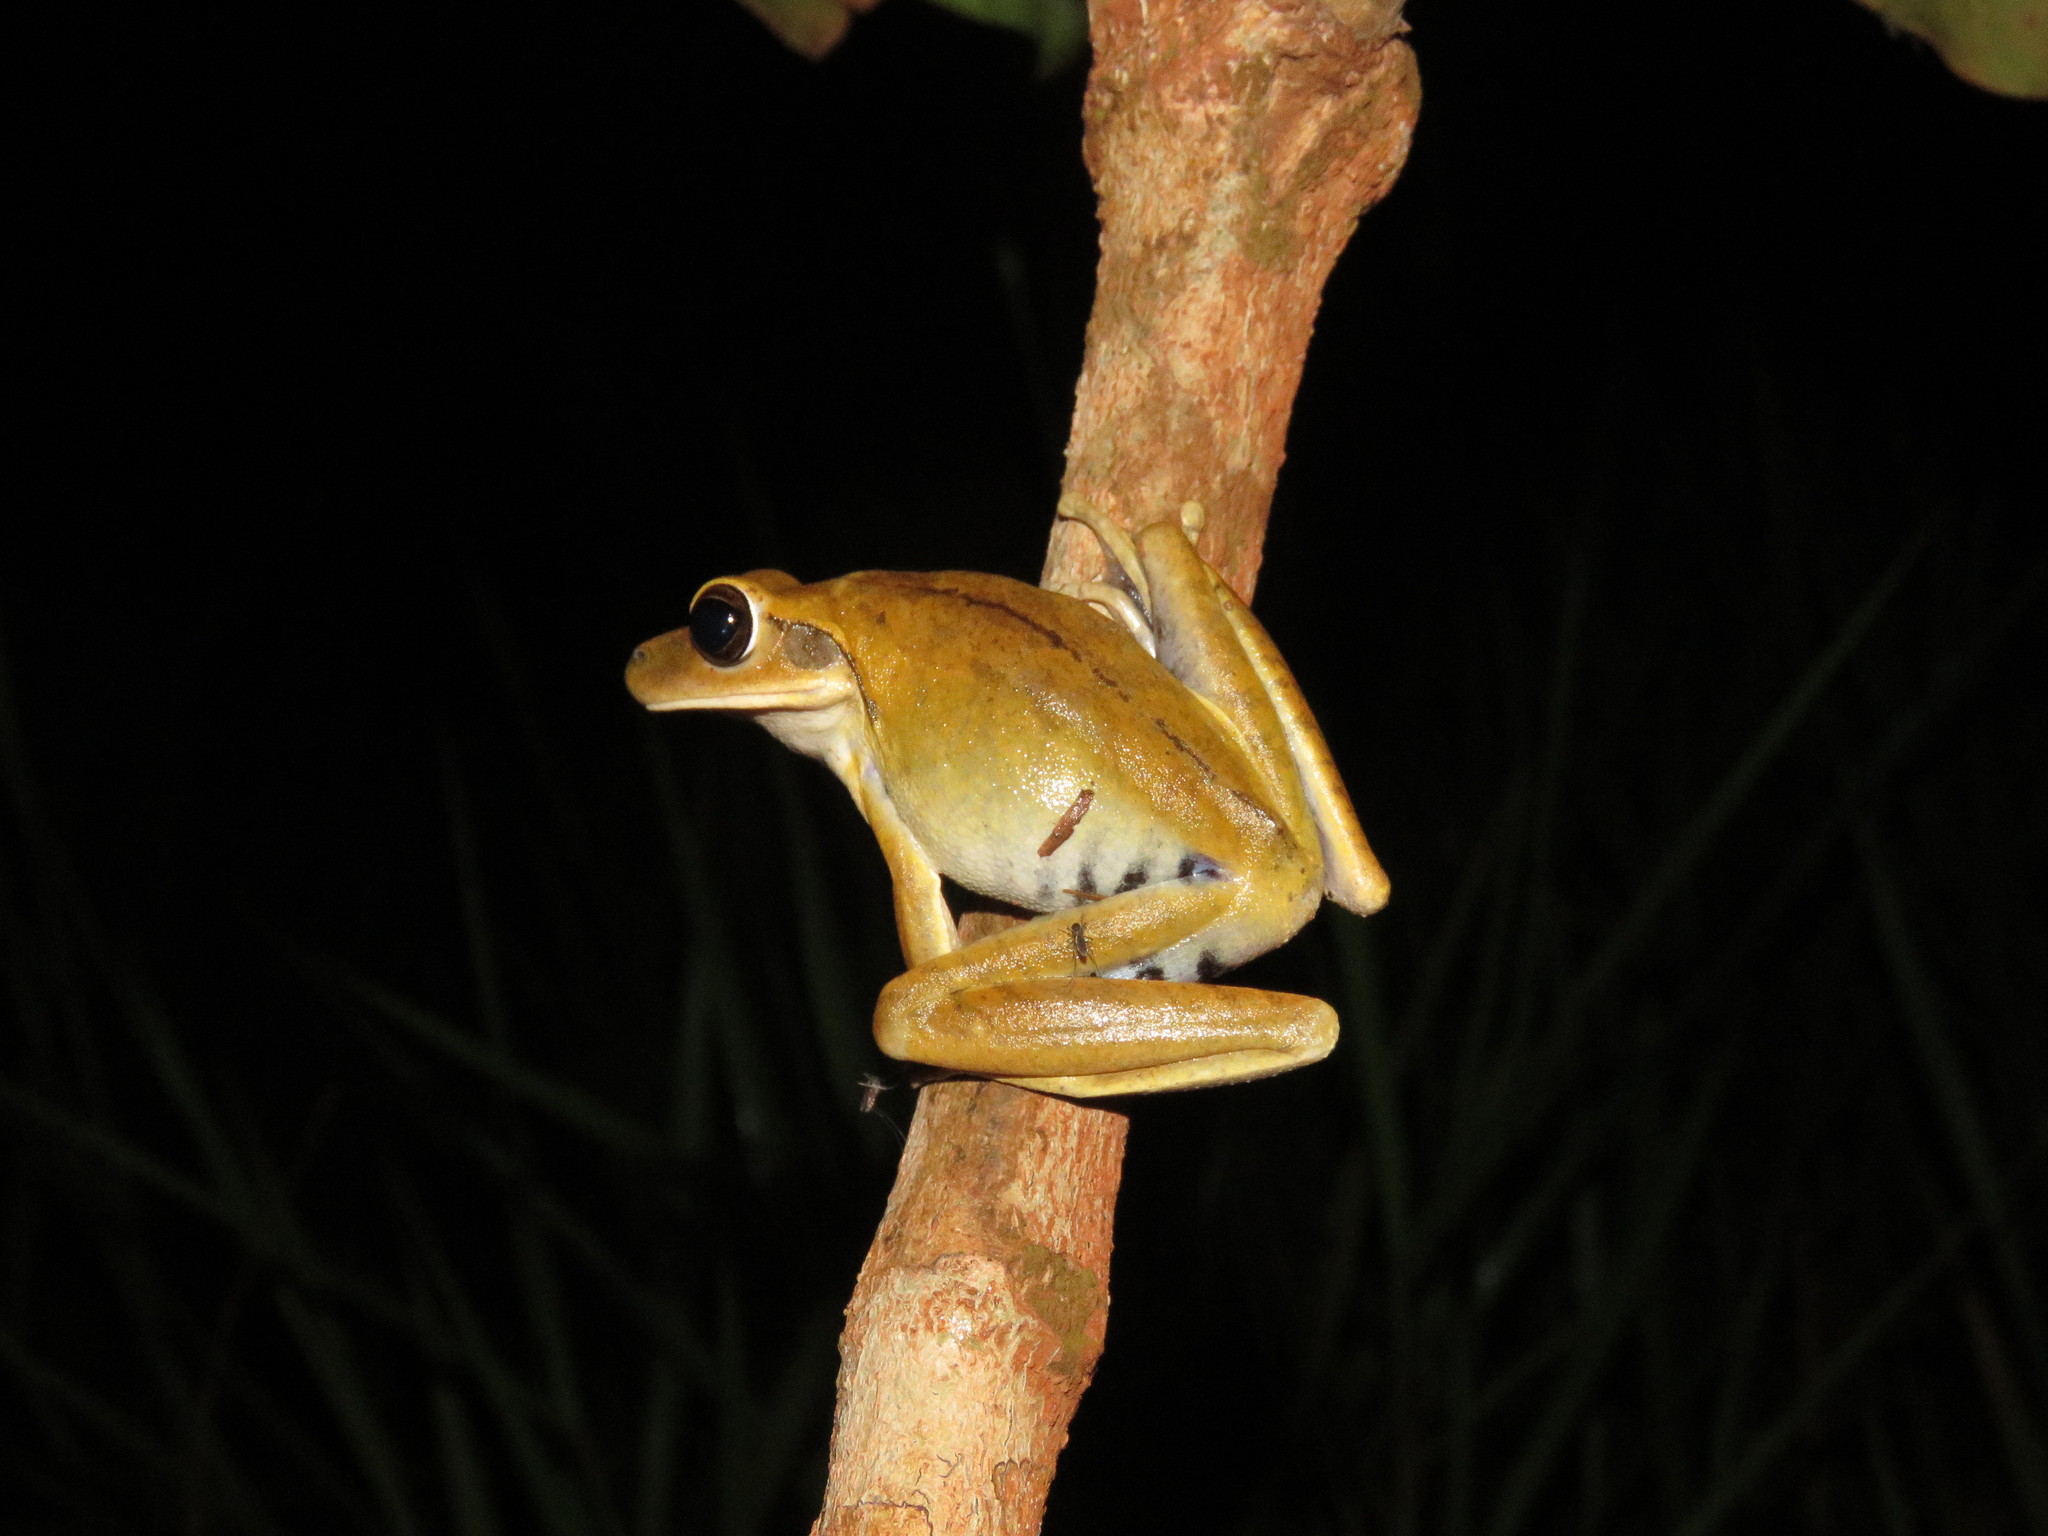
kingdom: Animalia
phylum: Chordata
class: Amphibia
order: Anura
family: Hylidae
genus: Boana
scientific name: Boana raniceps
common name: Chaco treefrog
